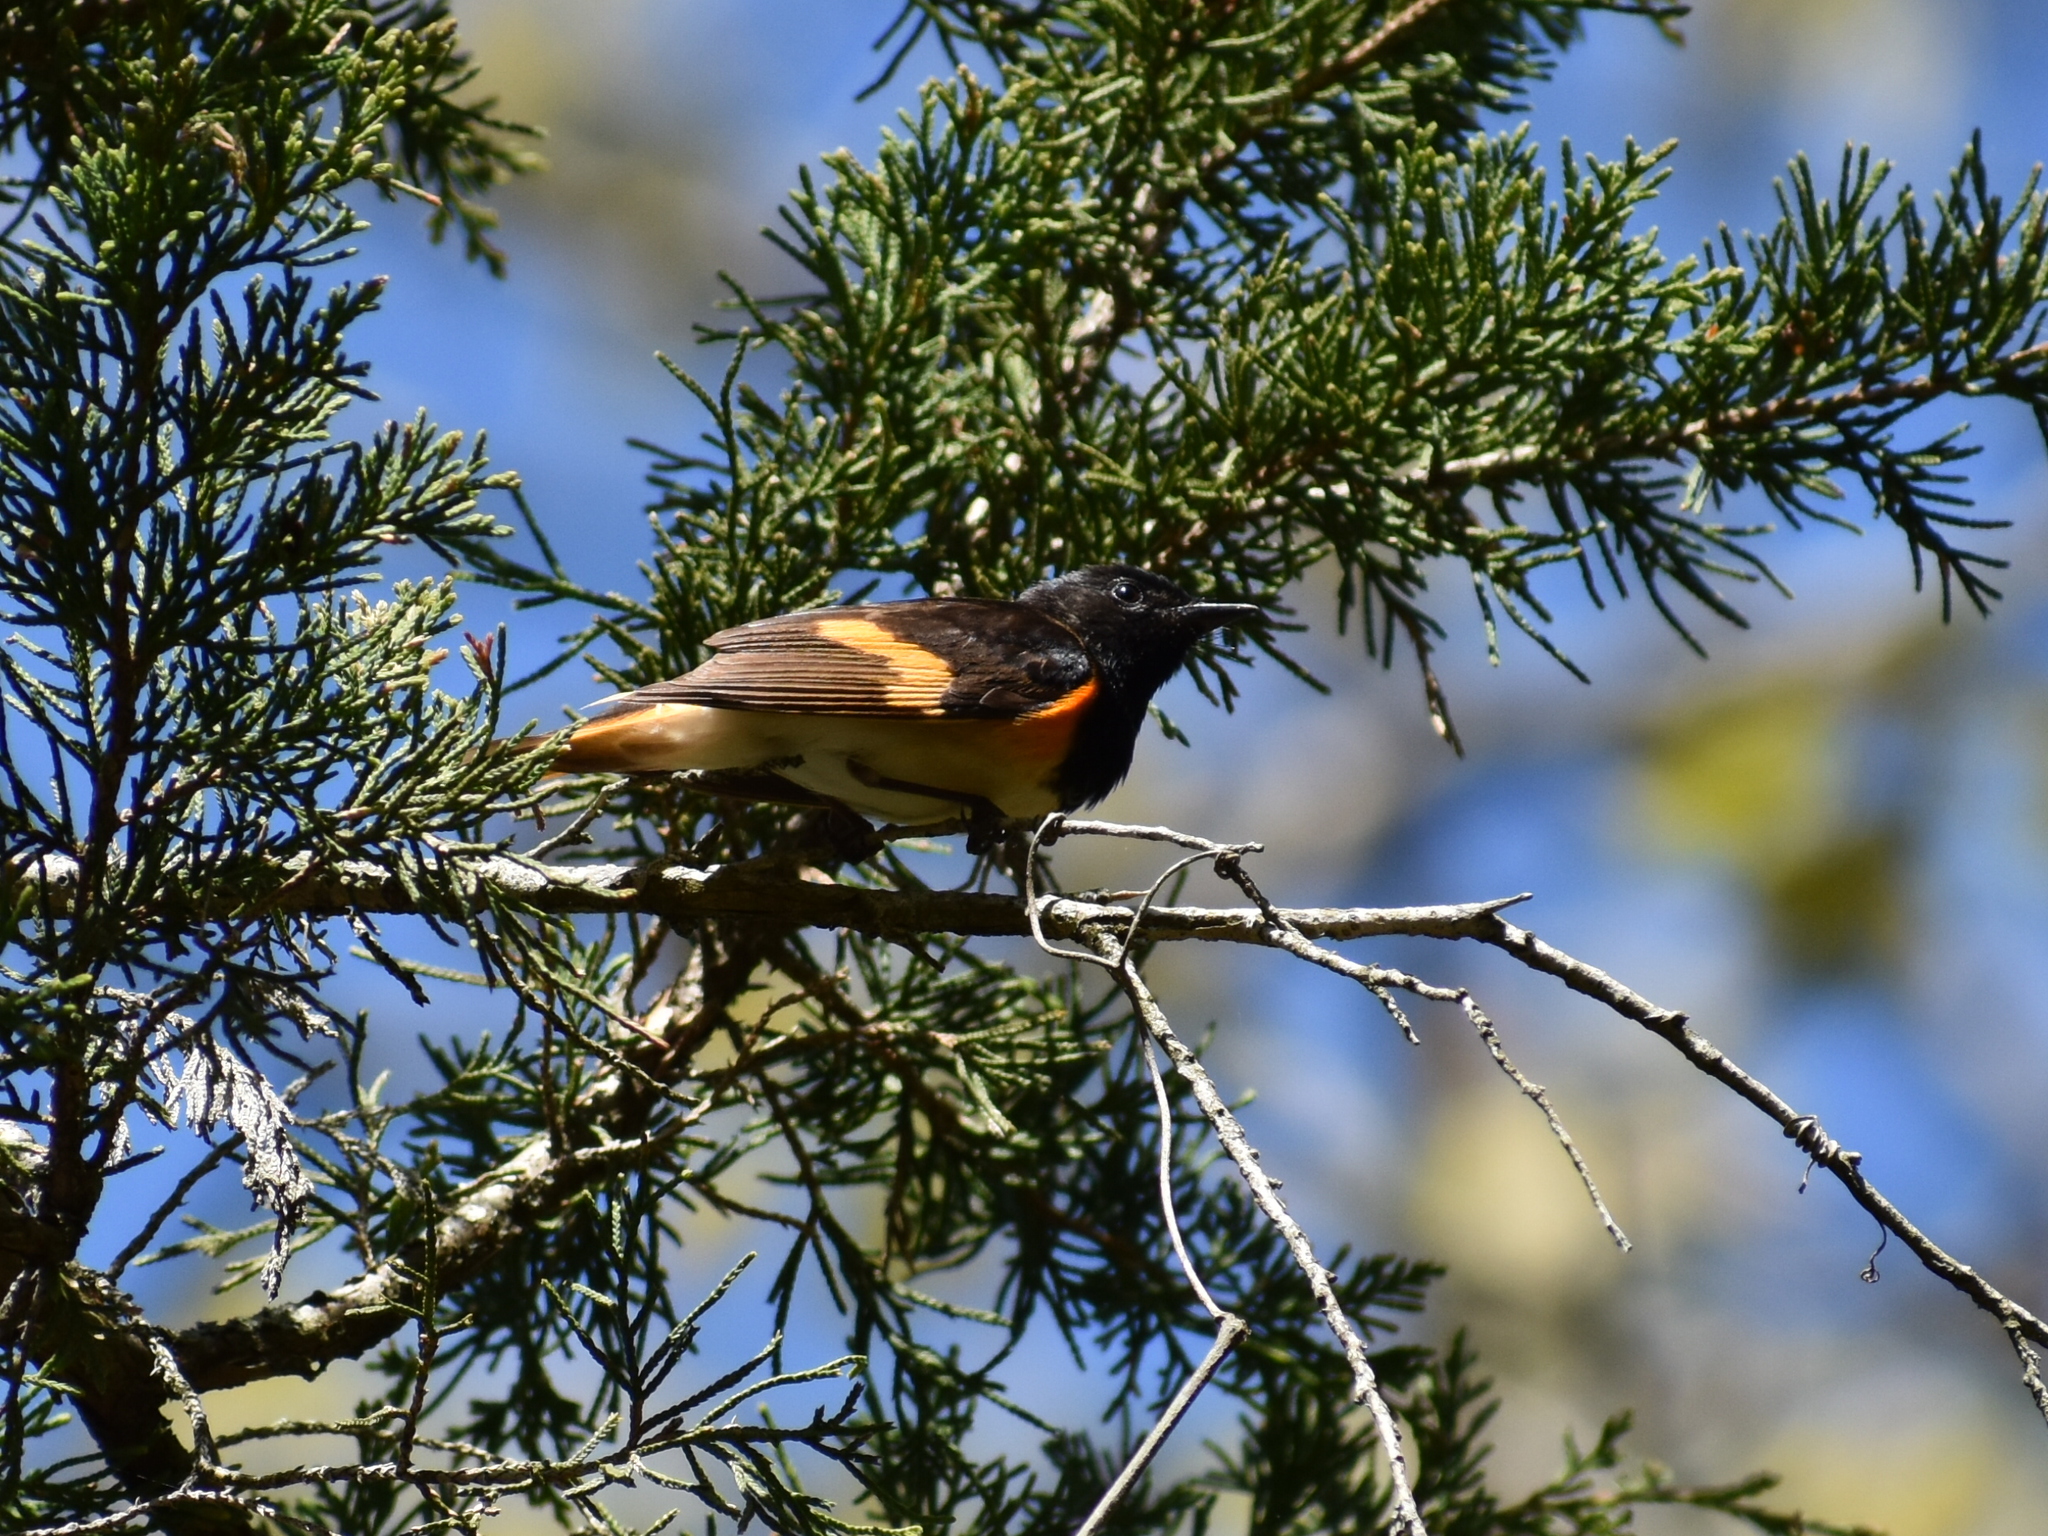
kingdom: Animalia
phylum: Chordata
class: Aves
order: Passeriformes
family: Parulidae
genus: Setophaga
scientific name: Setophaga ruticilla
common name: American redstart
